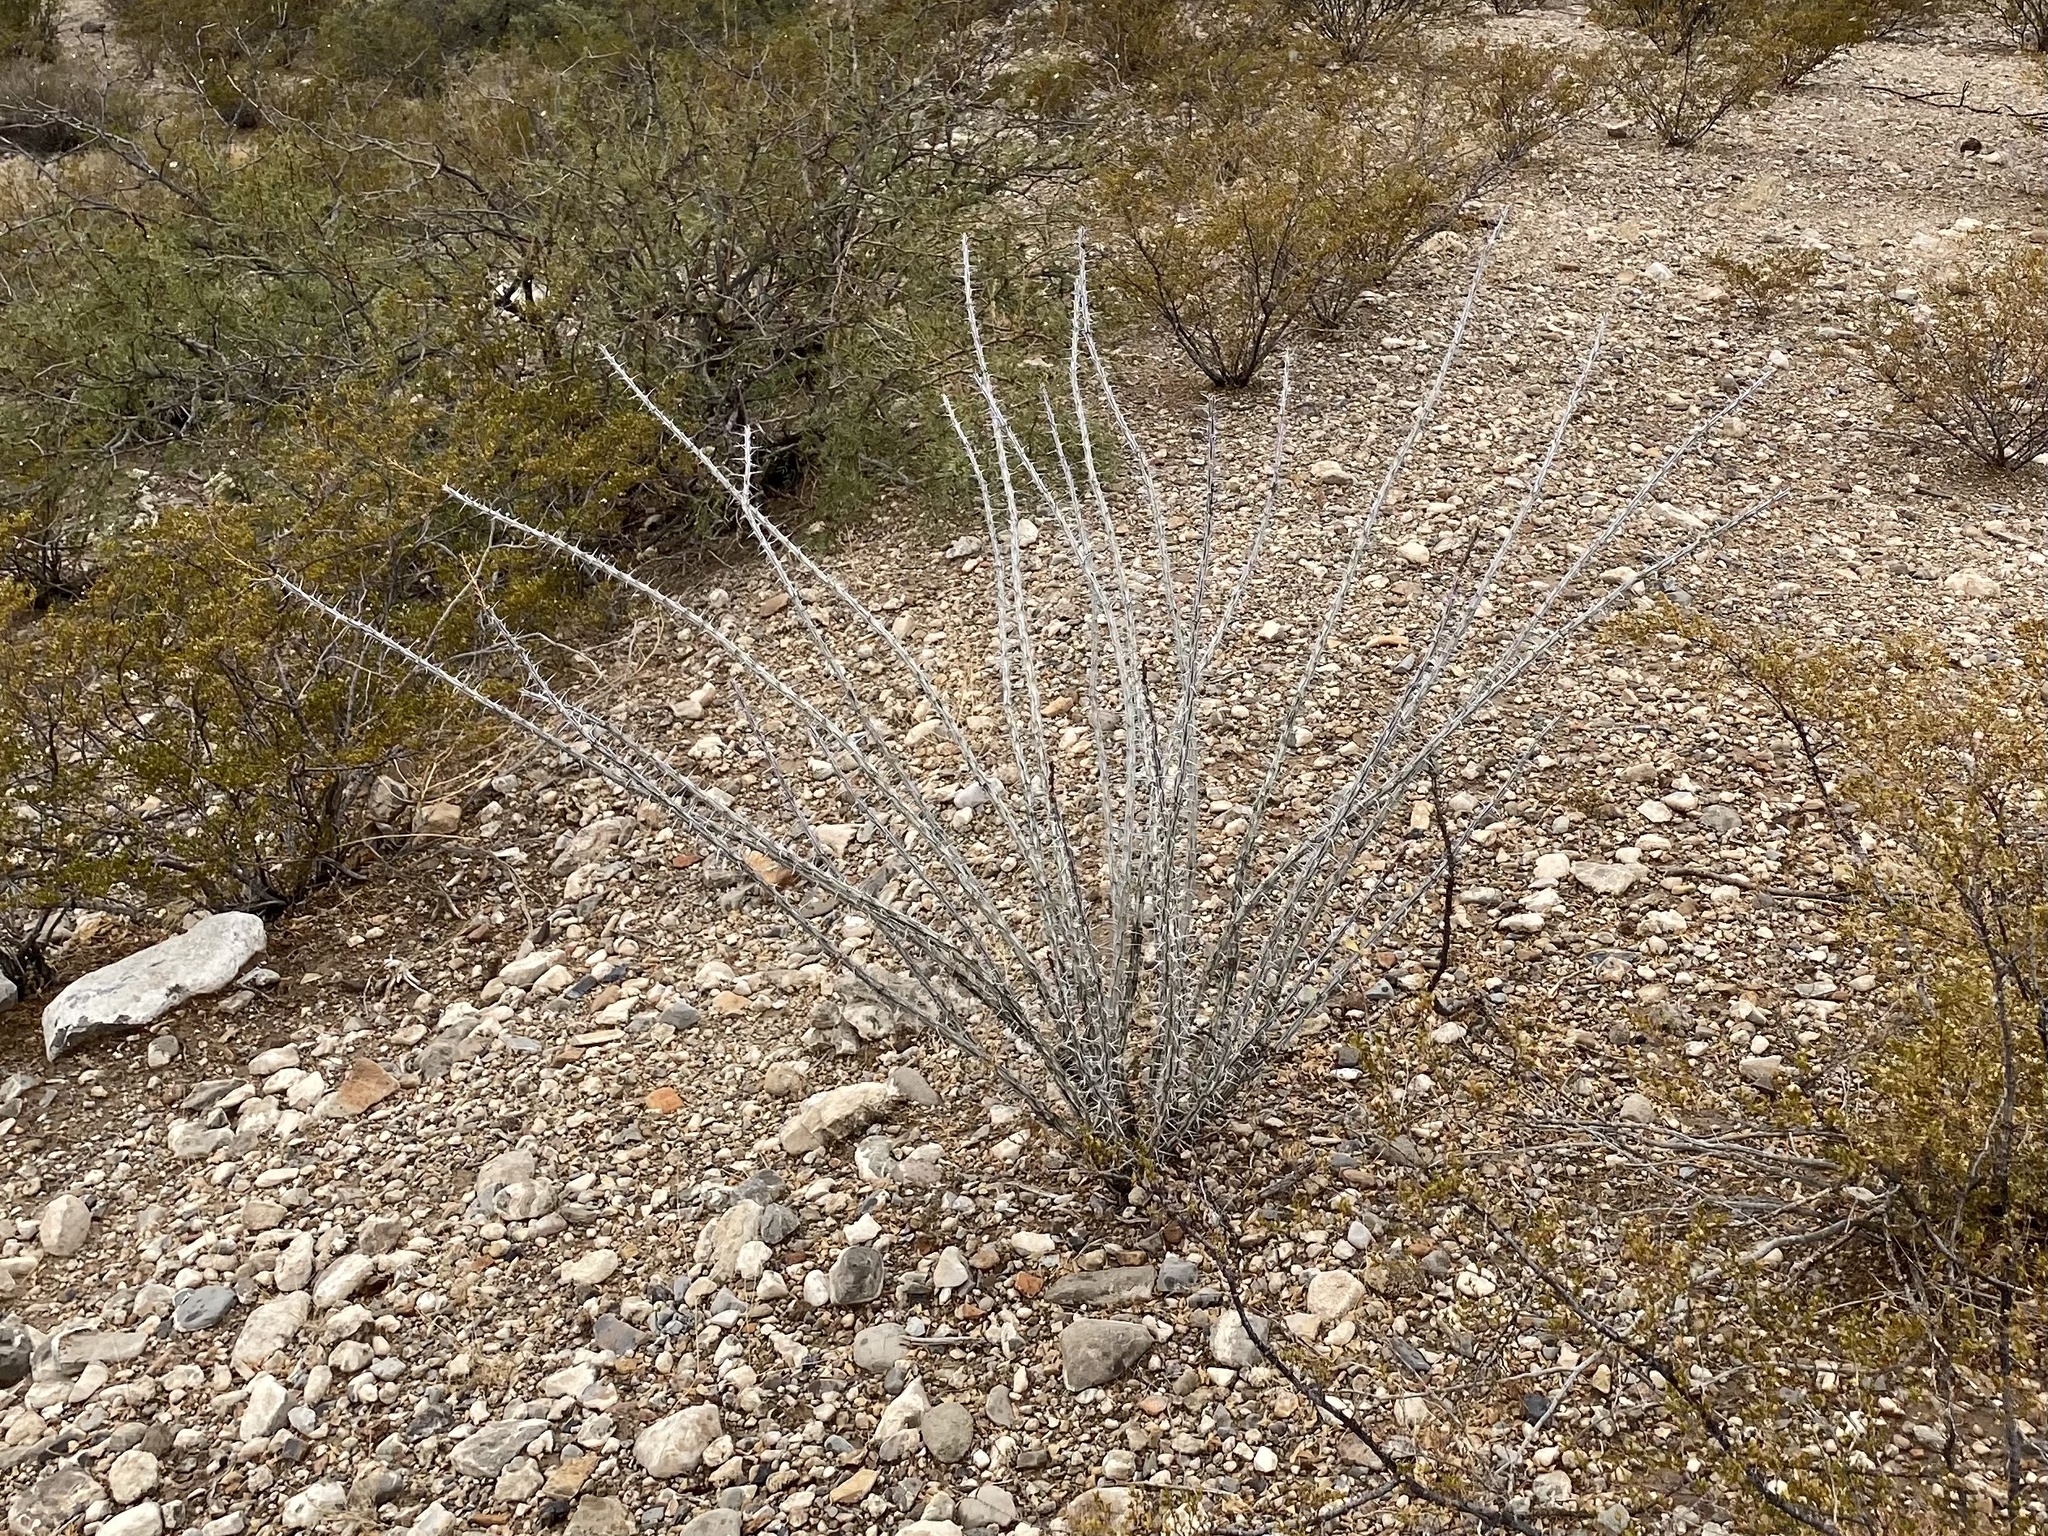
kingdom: Plantae
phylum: Tracheophyta
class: Magnoliopsida
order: Ericales
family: Fouquieriaceae
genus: Fouquieria
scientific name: Fouquieria splendens
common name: Vine-cactus
